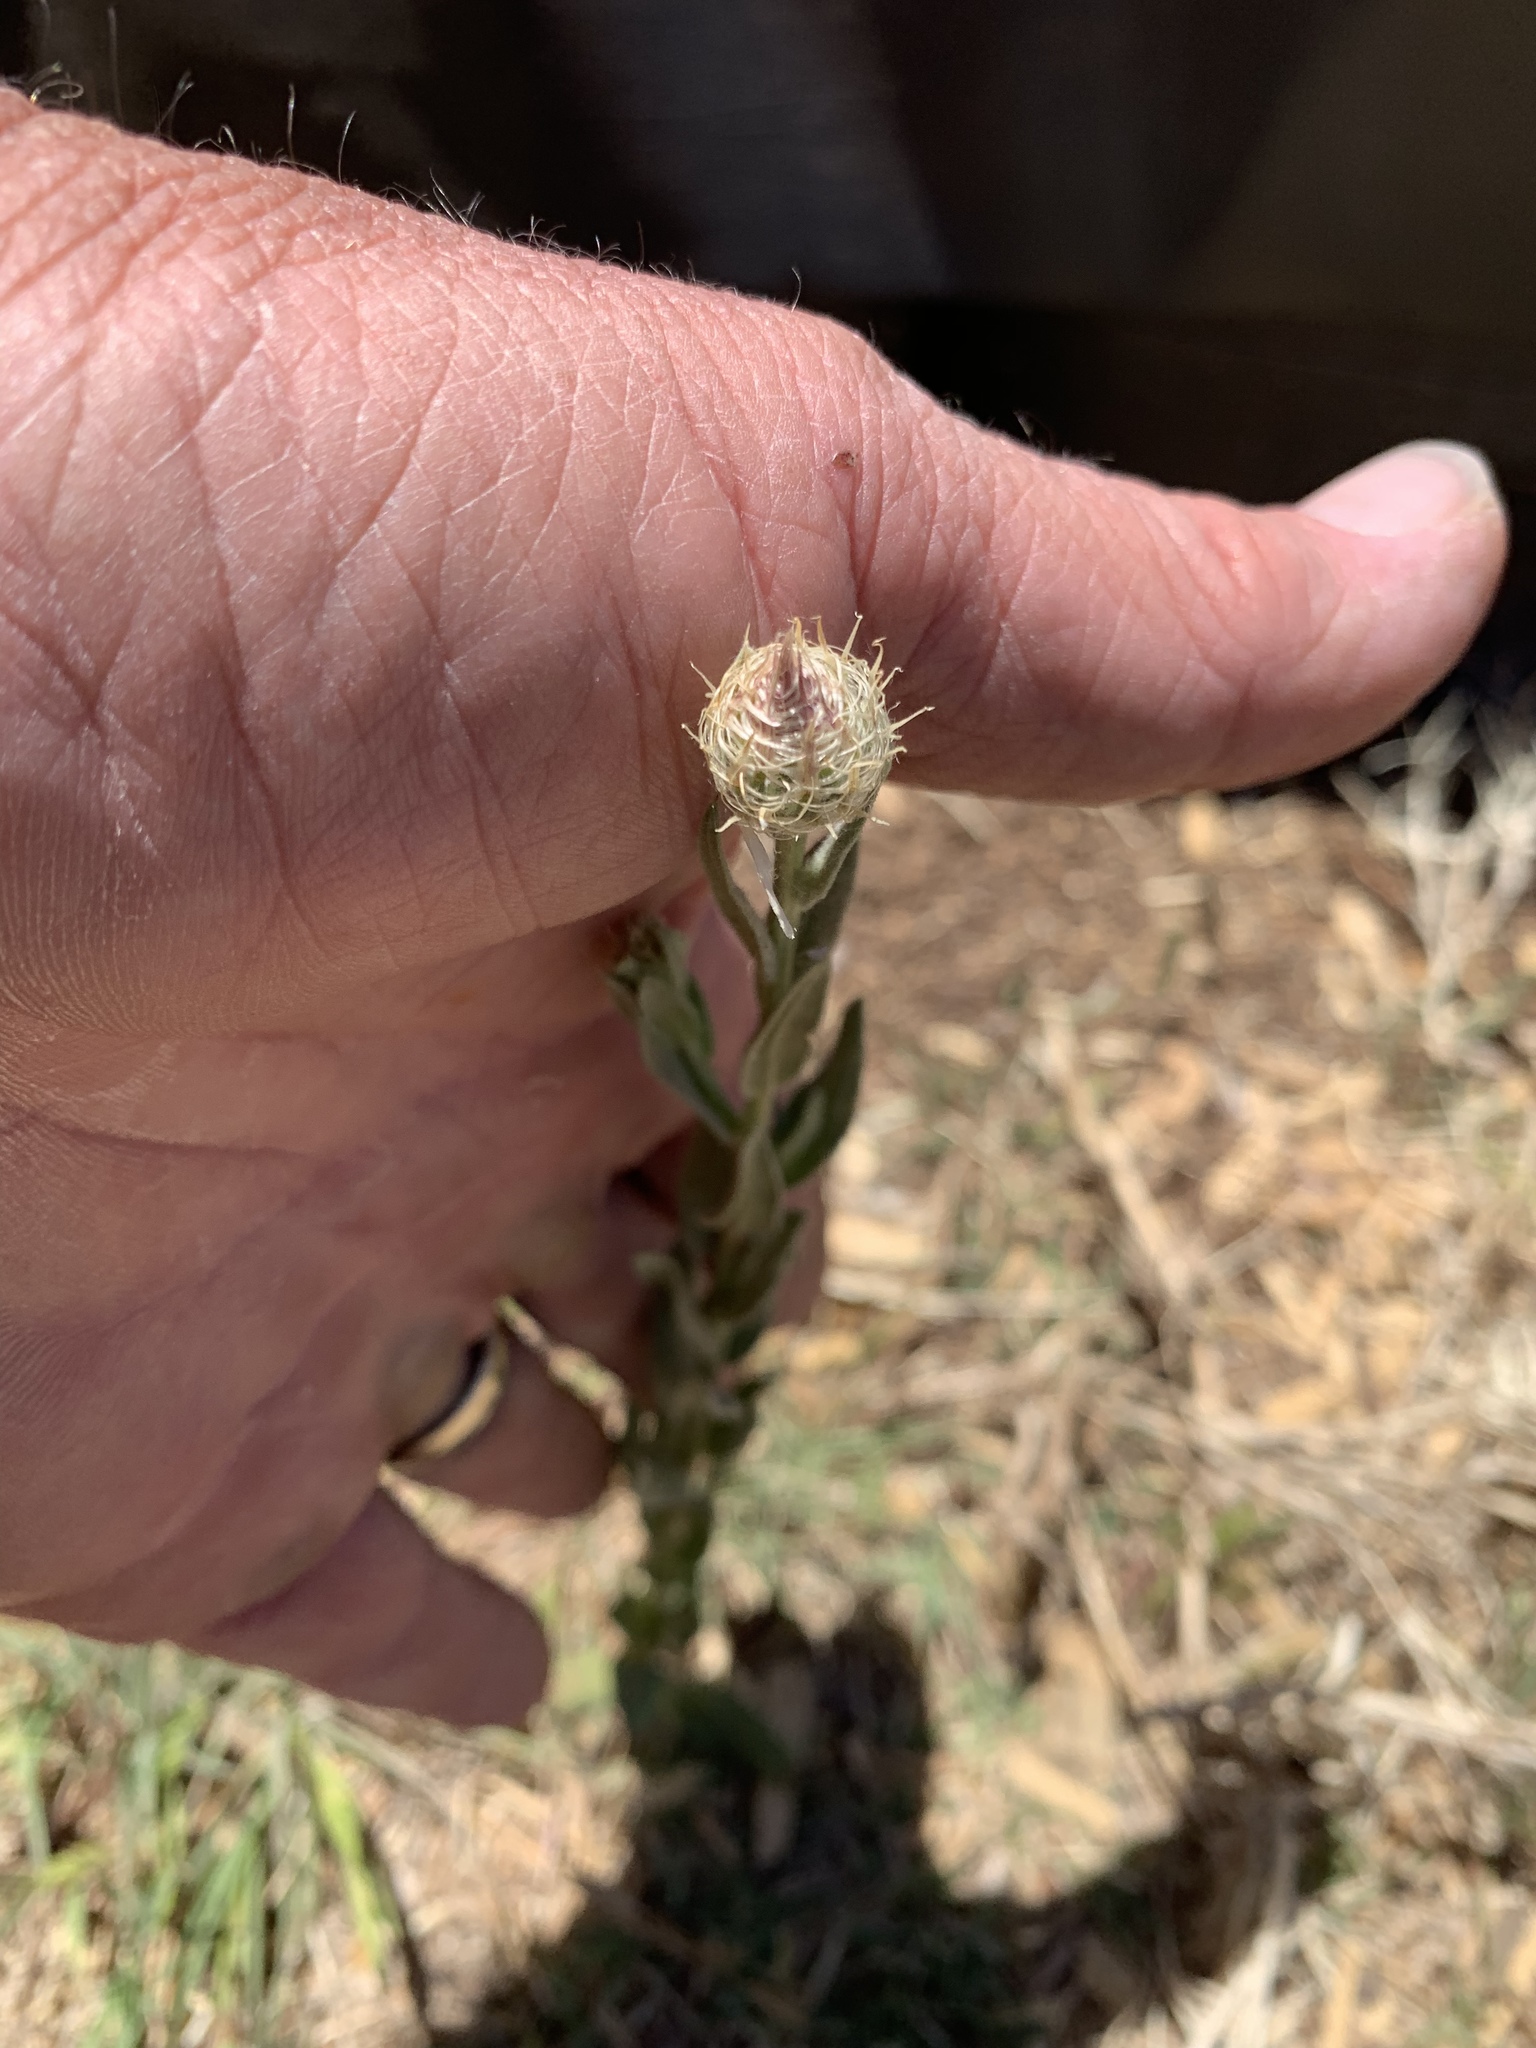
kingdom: Plantae
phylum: Tracheophyta
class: Magnoliopsida
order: Asterales
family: Asteraceae
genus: Plectocephalus
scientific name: Plectocephalus americanus
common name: American basket-flower
